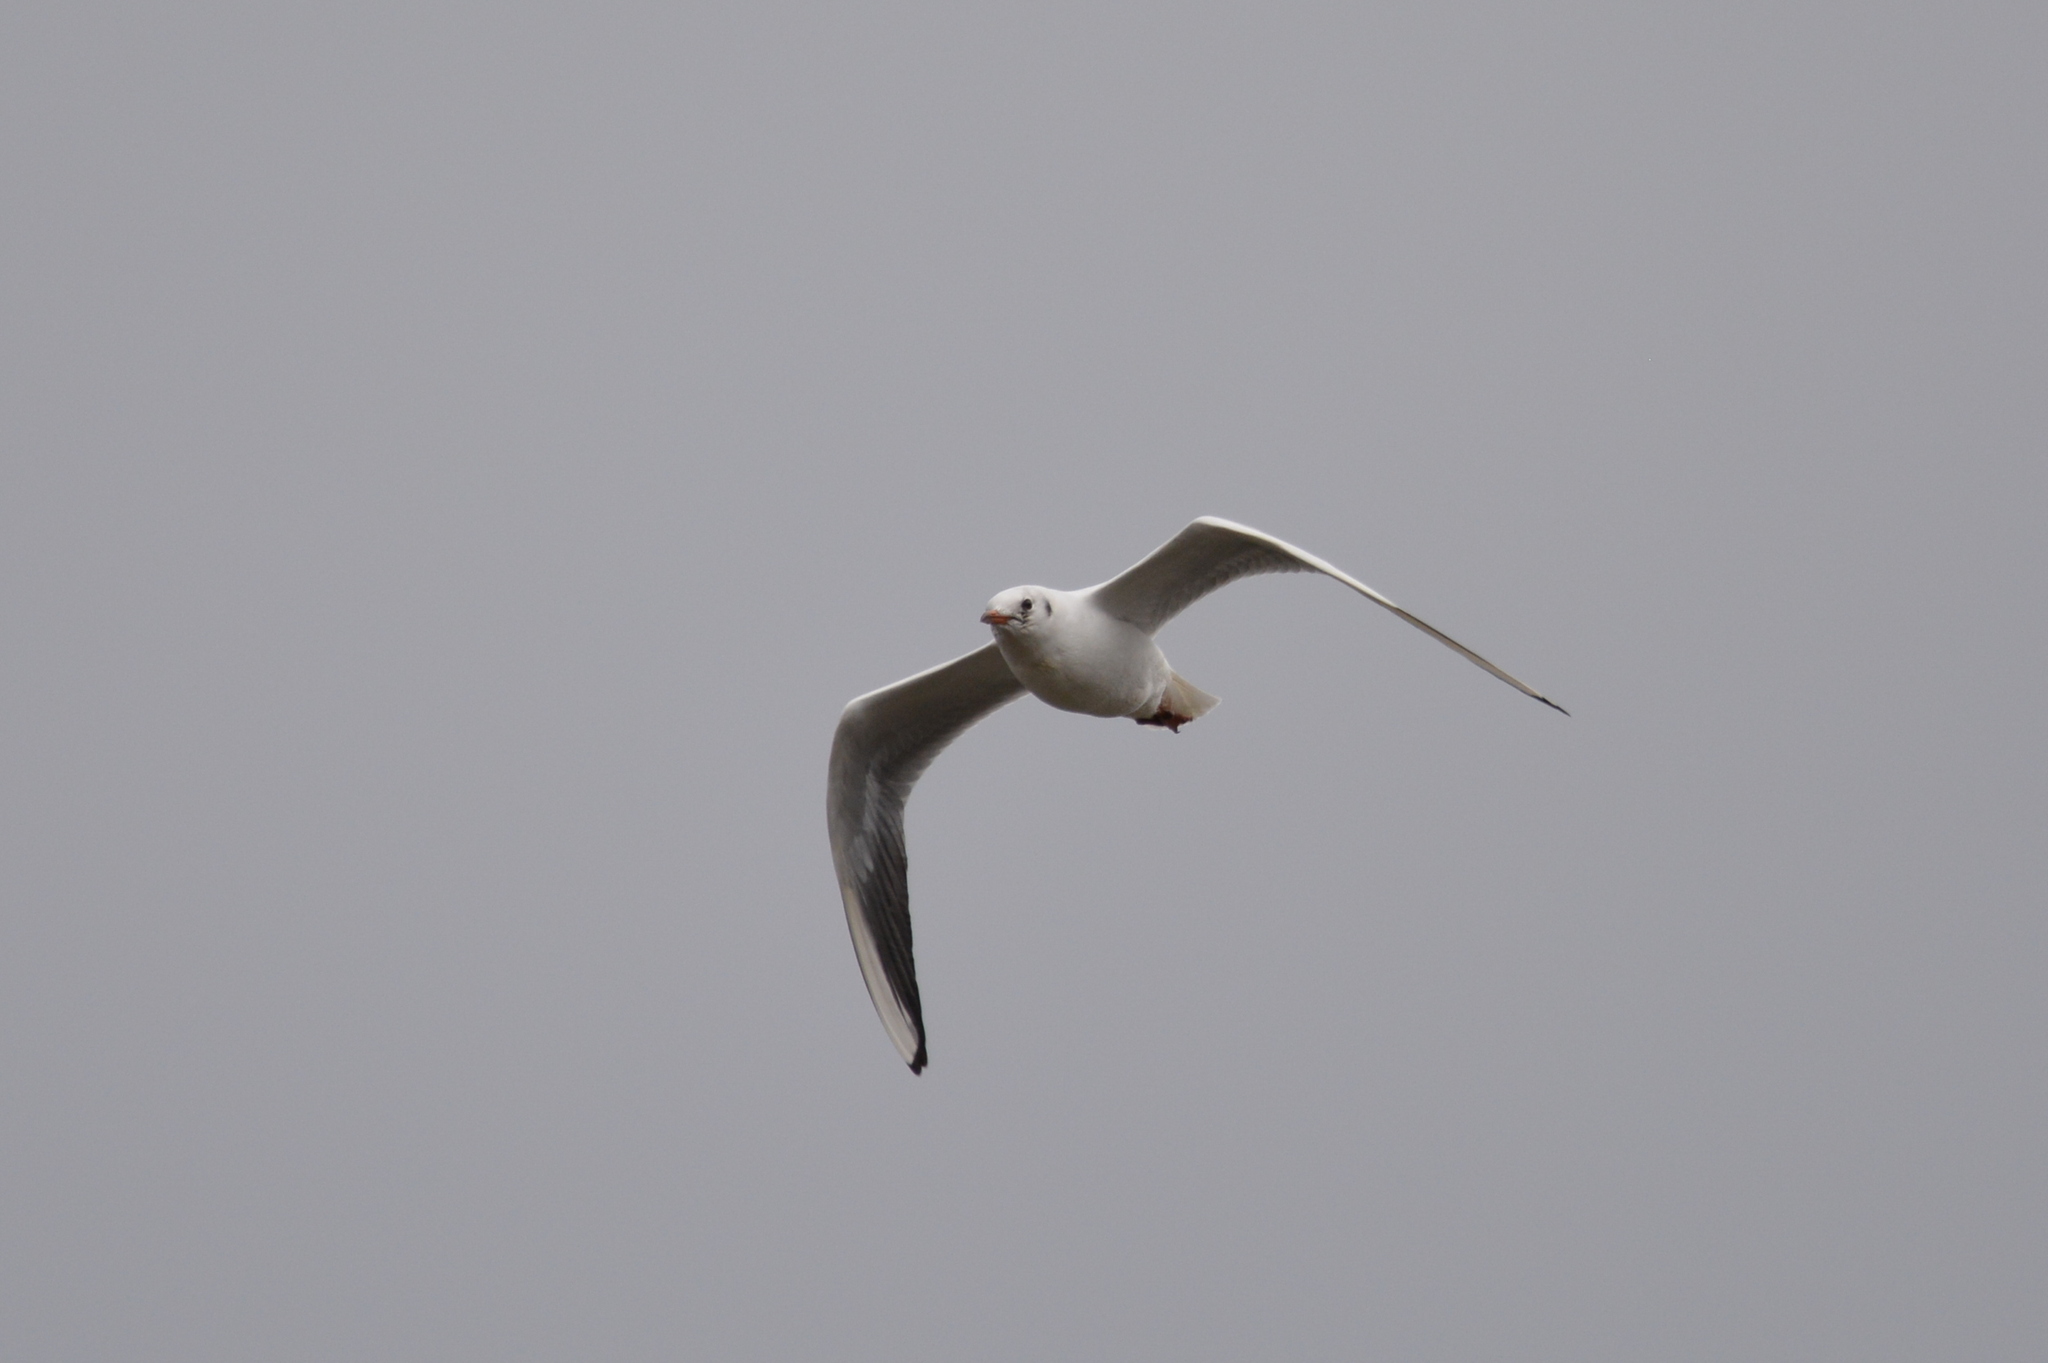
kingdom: Animalia
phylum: Chordata
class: Aves
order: Charadriiformes
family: Laridae
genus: Chroicocephalus
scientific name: Chroicocephalus ridibundus
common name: Black-headed gull
